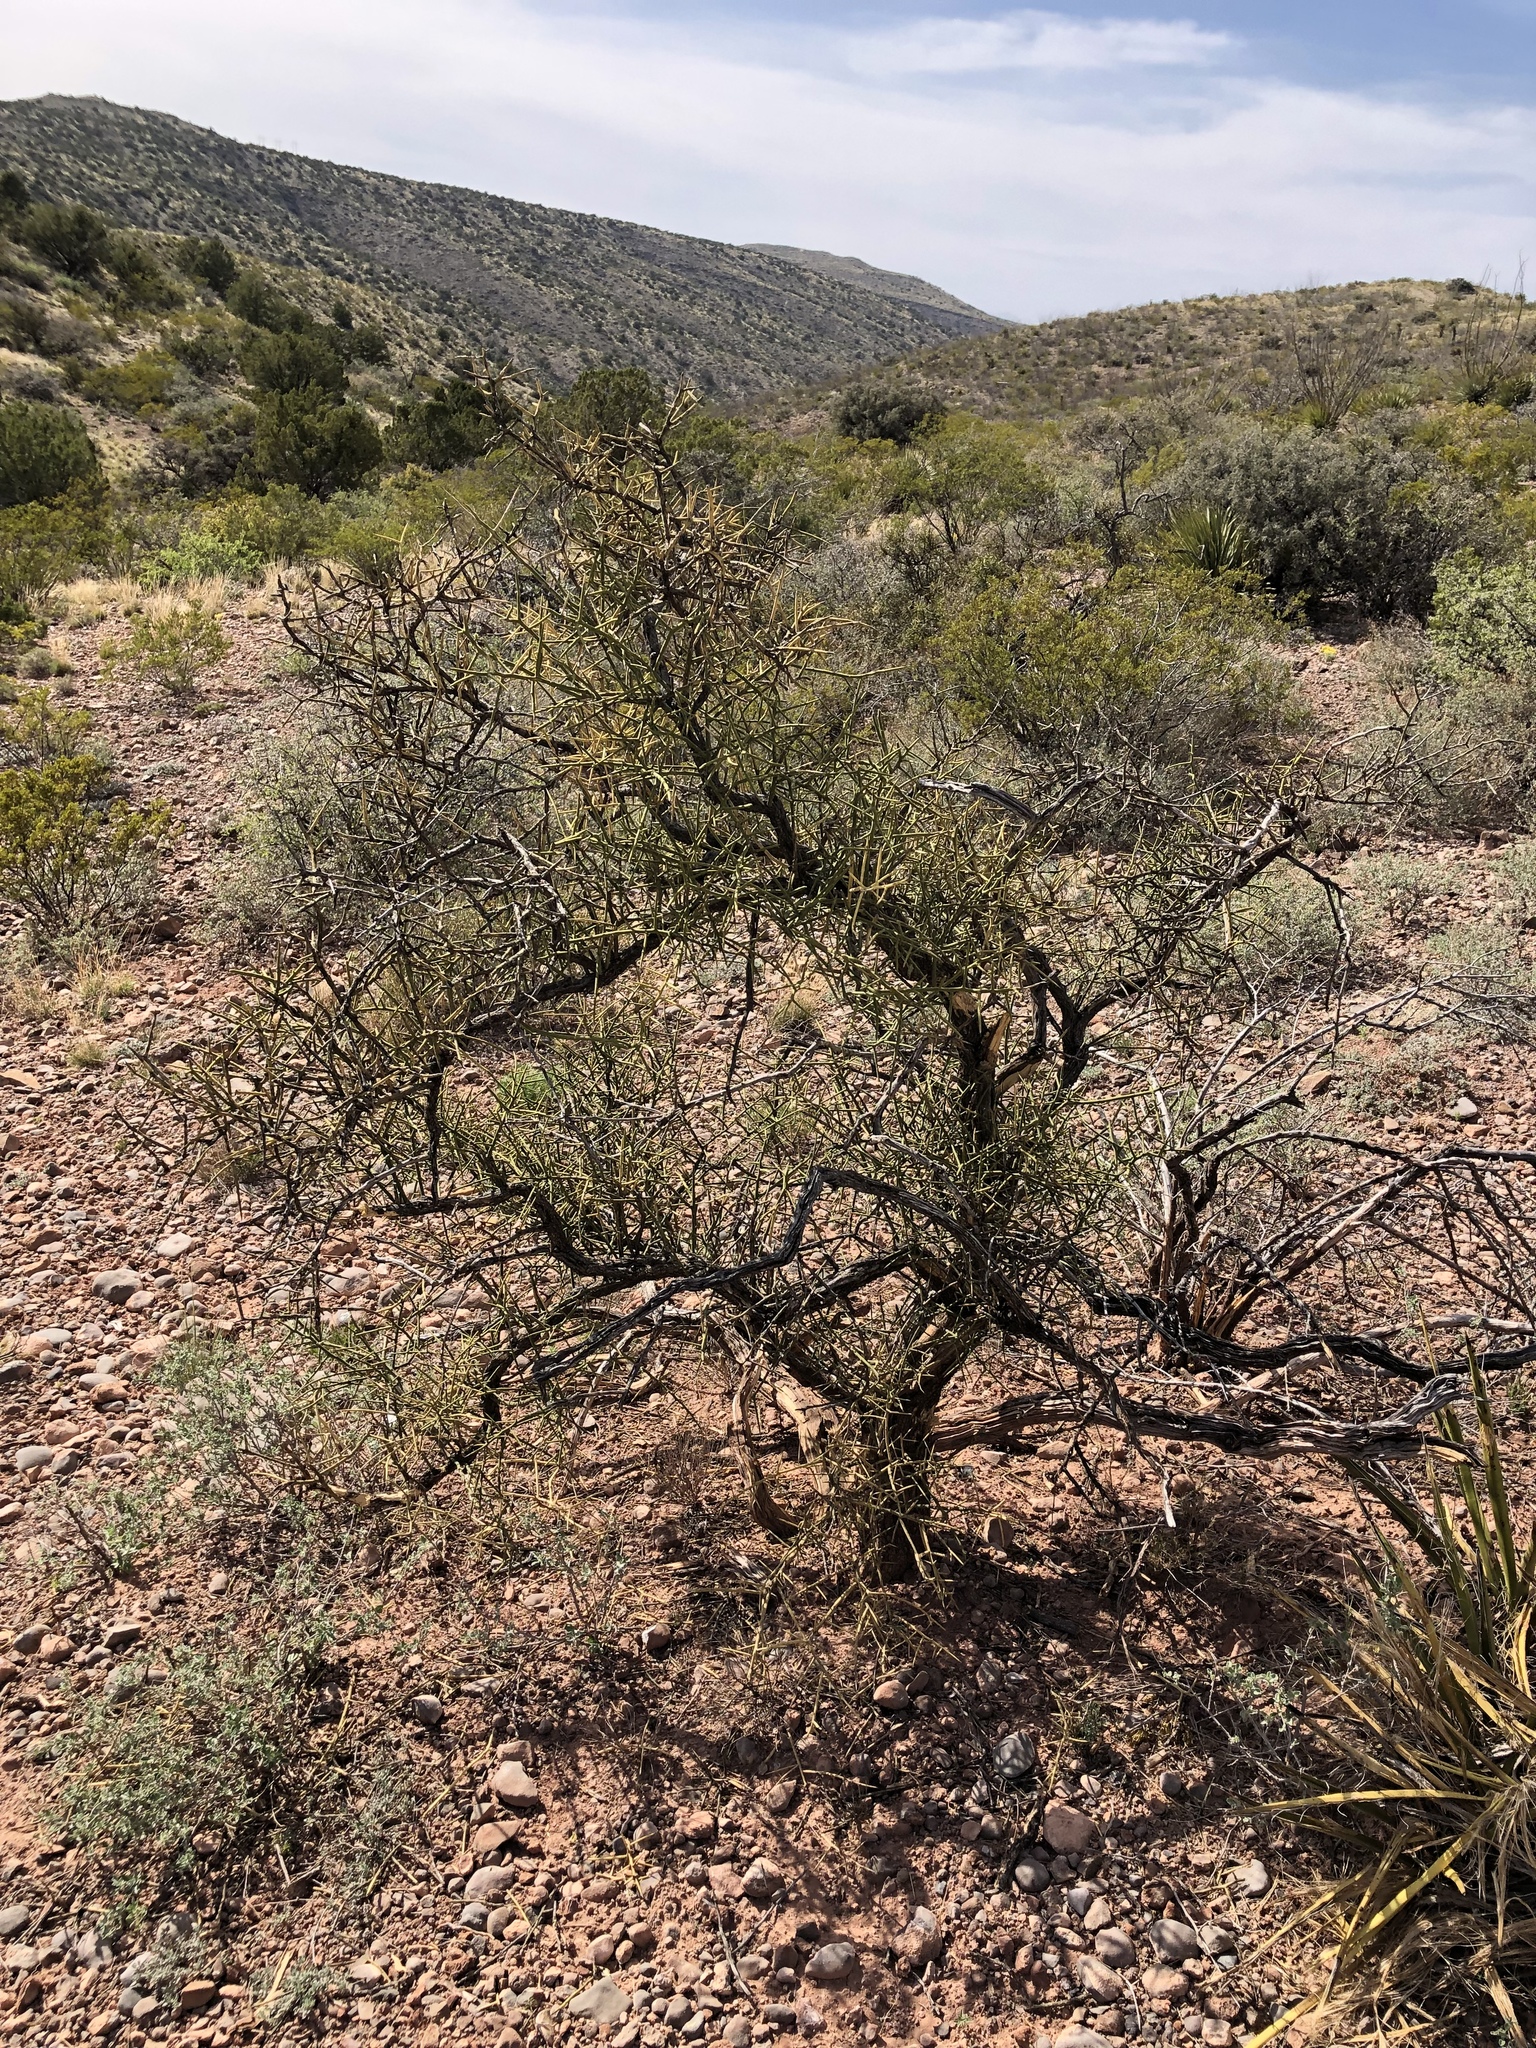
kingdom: Plantae
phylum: Tracheophyta
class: Magnoliopsida
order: Brassicales
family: Koeberliniaceae
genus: Koeberlinia
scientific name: Koeberlinia spinosa
